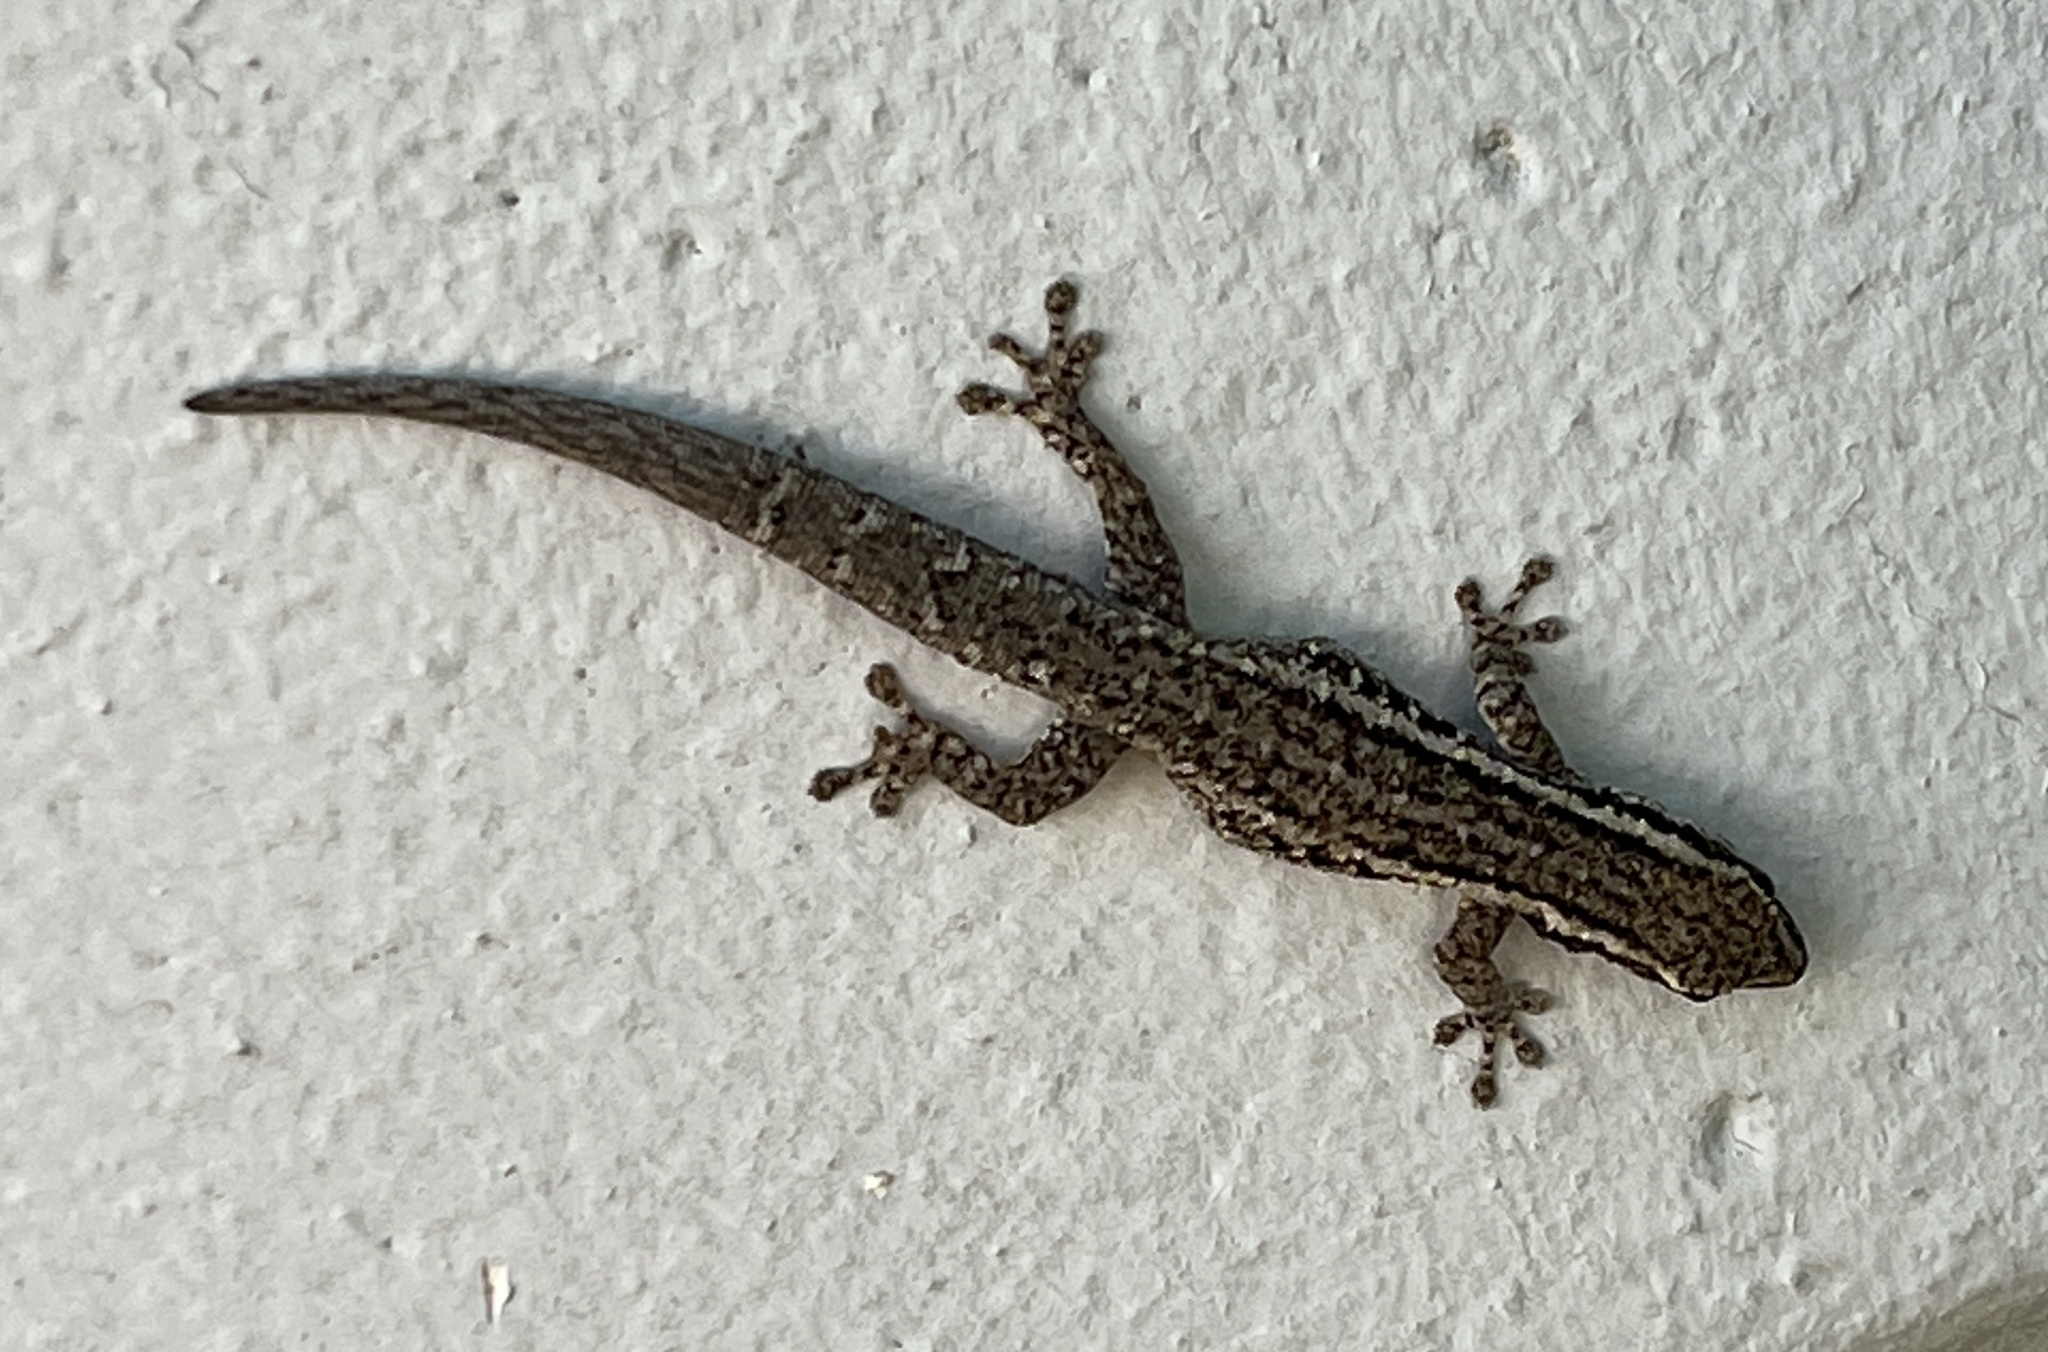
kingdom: Animalia
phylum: Chordata
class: Squamata
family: Gekkonidae
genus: Lygodactylus
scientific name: Lygodactylus capensis
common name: Cape dwarf gecko
